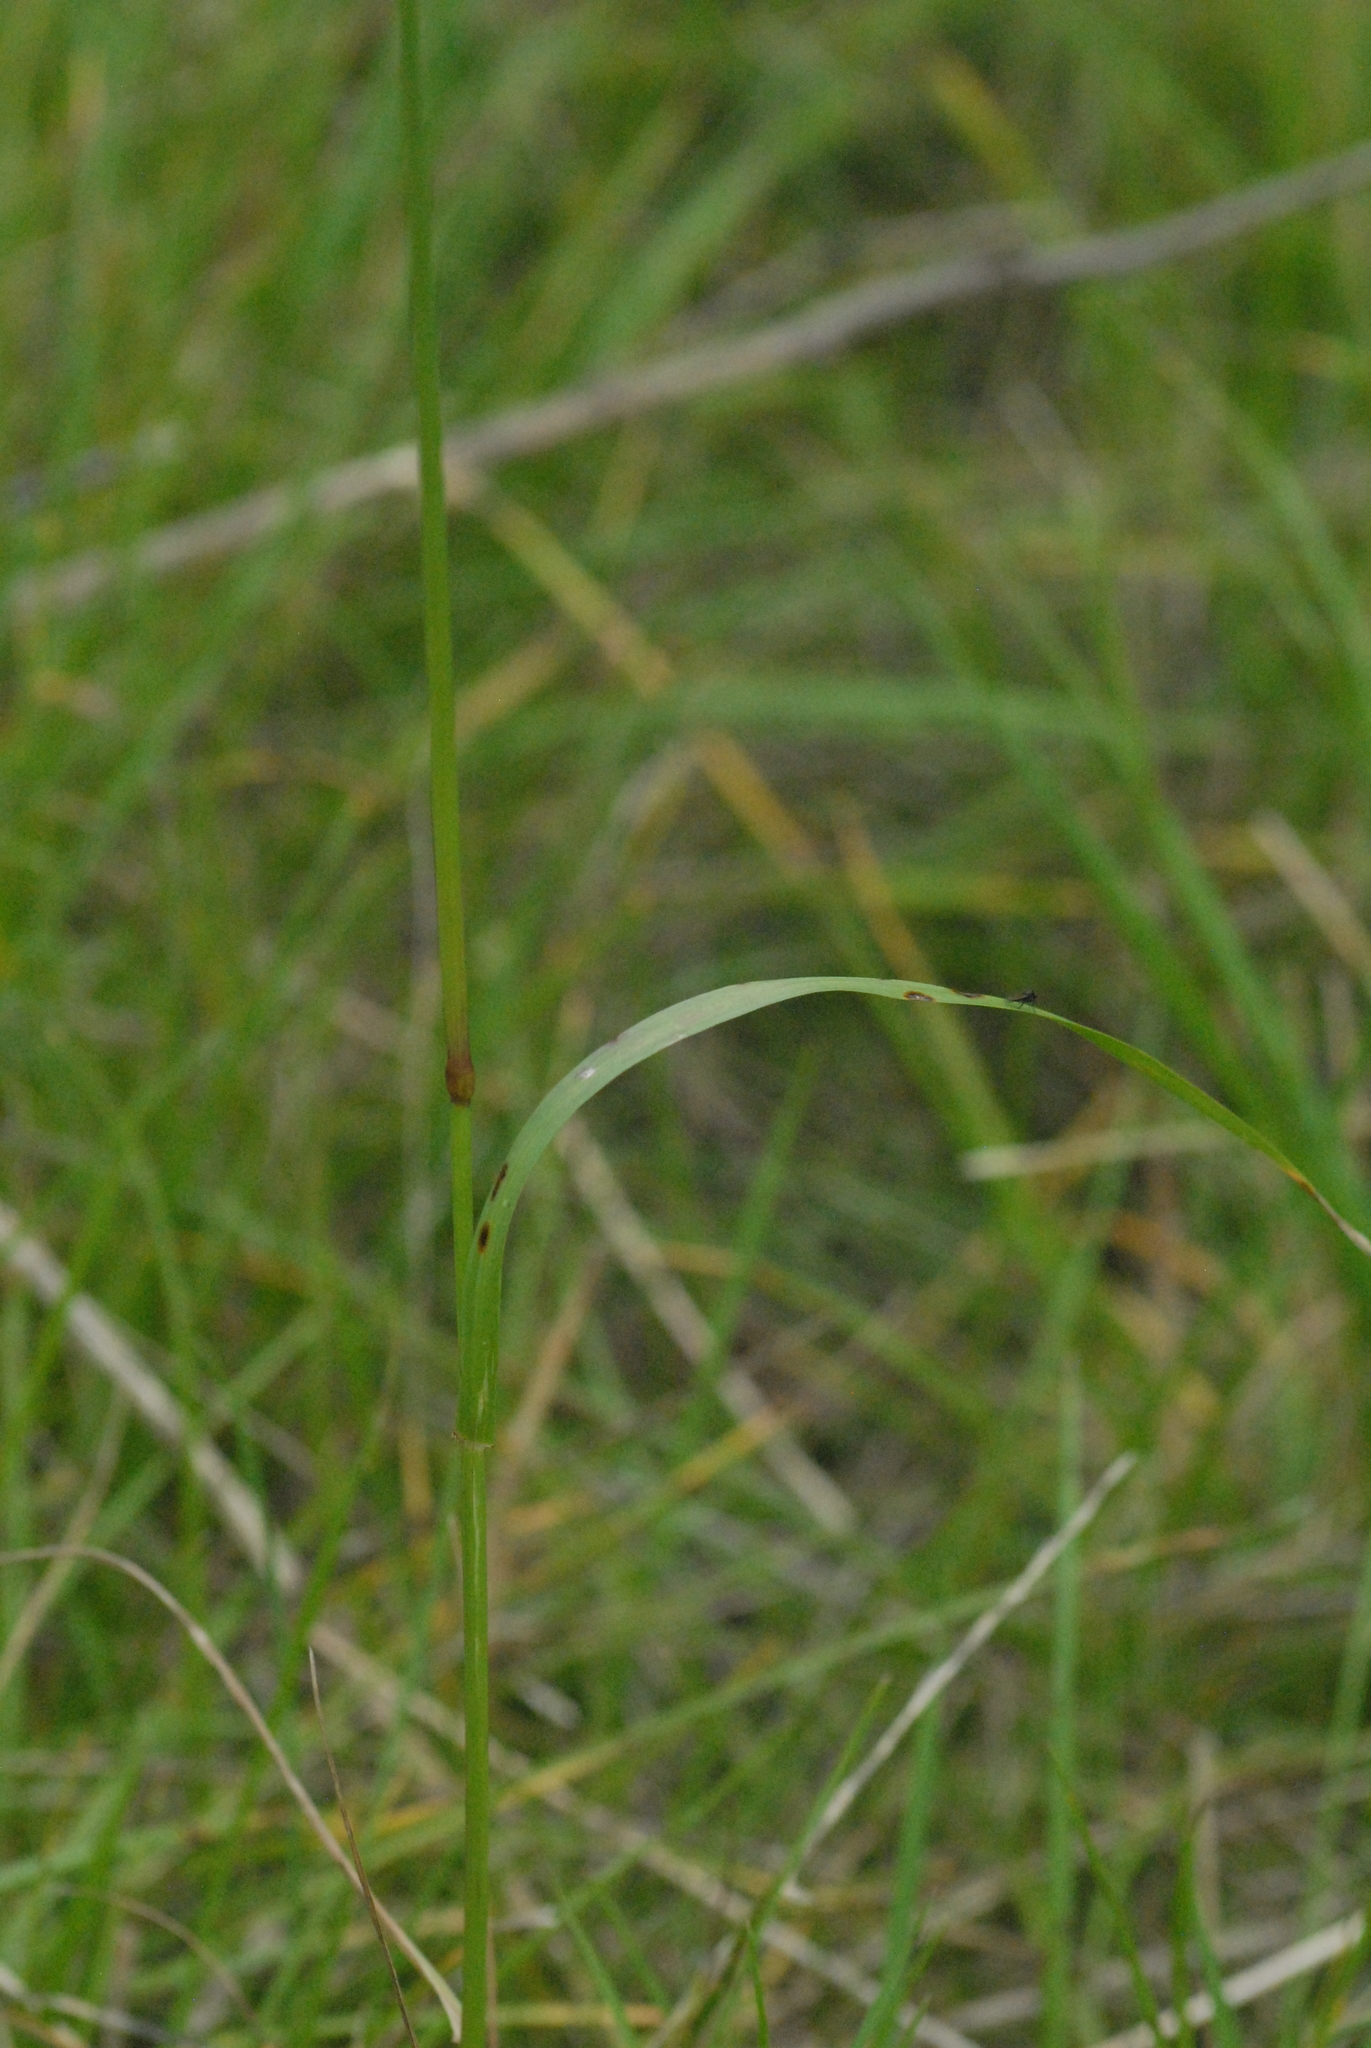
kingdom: Plantae
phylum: Tracheophyta
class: Liliopsida
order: Poales
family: Poaceae
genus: Lolium
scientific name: Lolium perenne
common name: Perennial ryegrass
